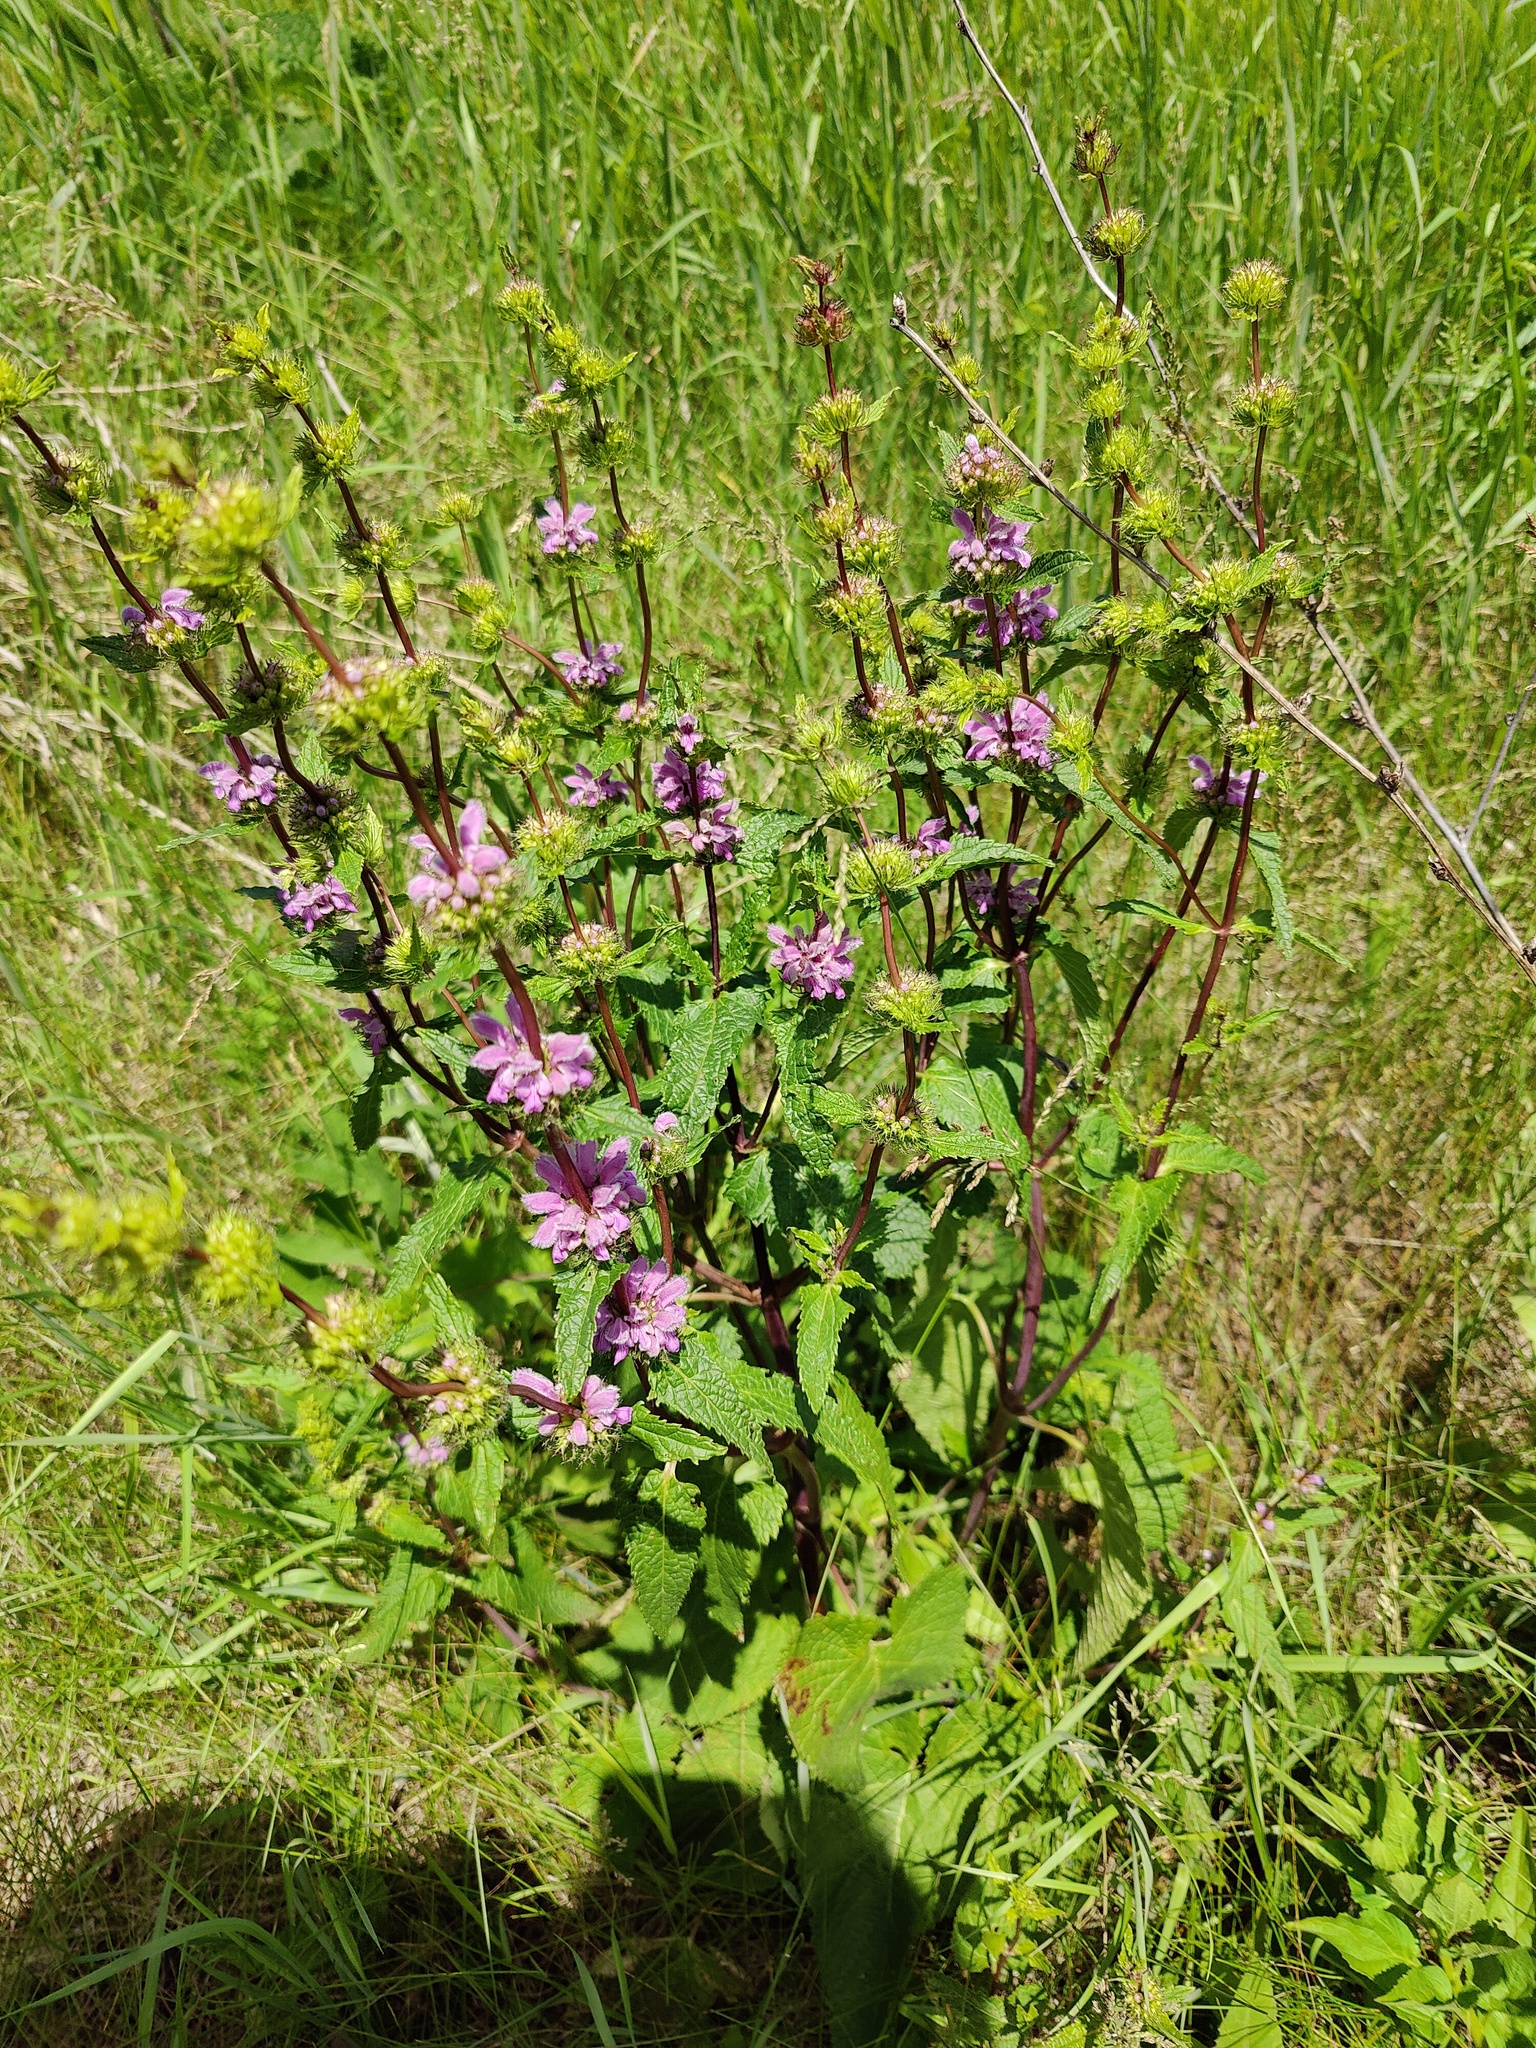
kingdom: Plantae
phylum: Tracheophyta
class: Magnoliopsida
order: Lamiales
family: Lamiaceae
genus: Phlomoides
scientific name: Phlomoides tuberosa
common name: Tuberous jerusalem sage
